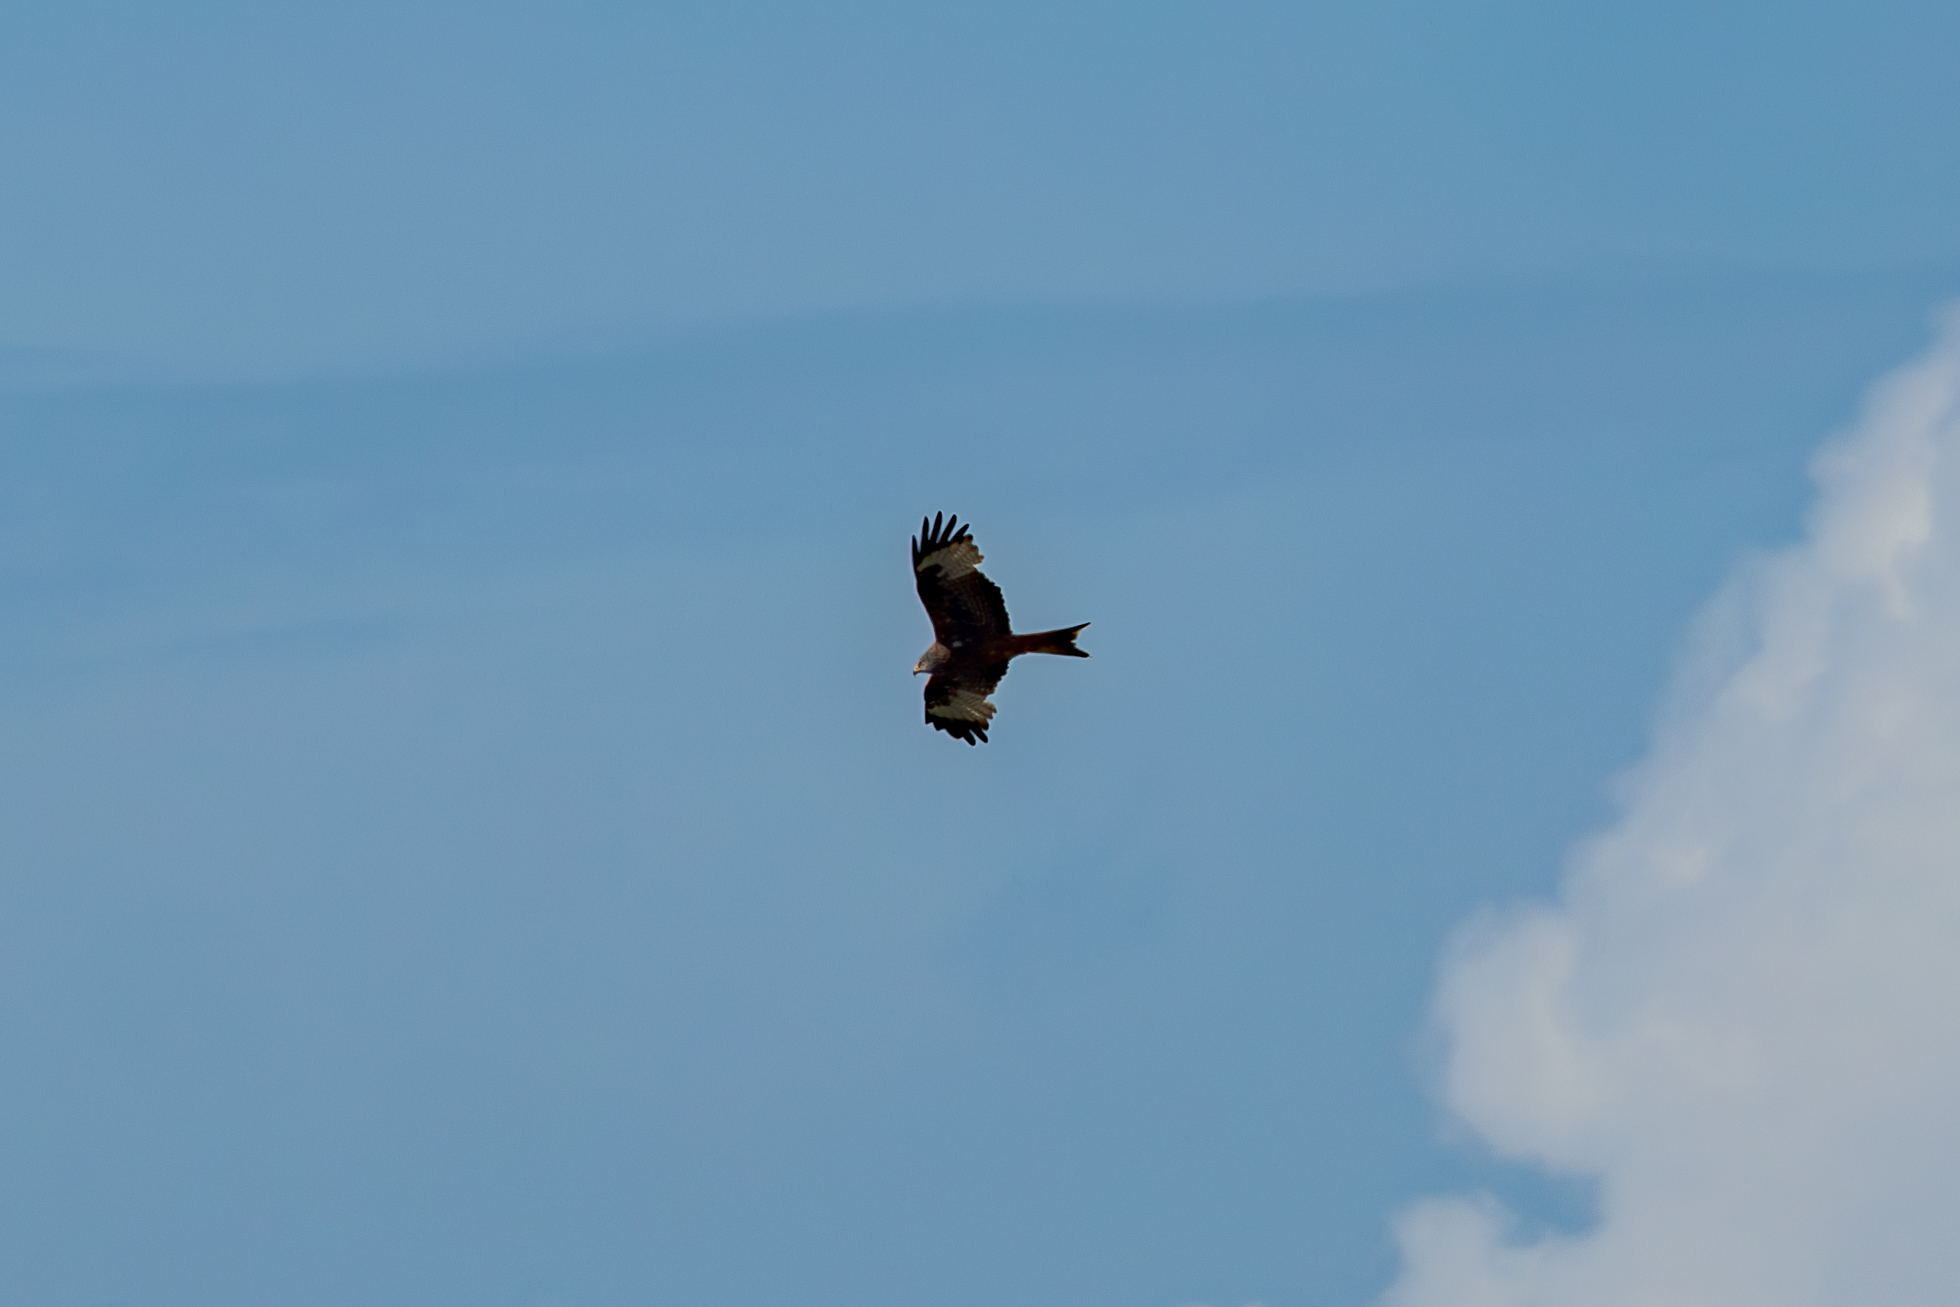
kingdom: Animalia
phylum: Chordata
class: Aves
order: Accipitriformes
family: Accipitridae
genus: Milvus
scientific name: Milvus milvus
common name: Red kite
